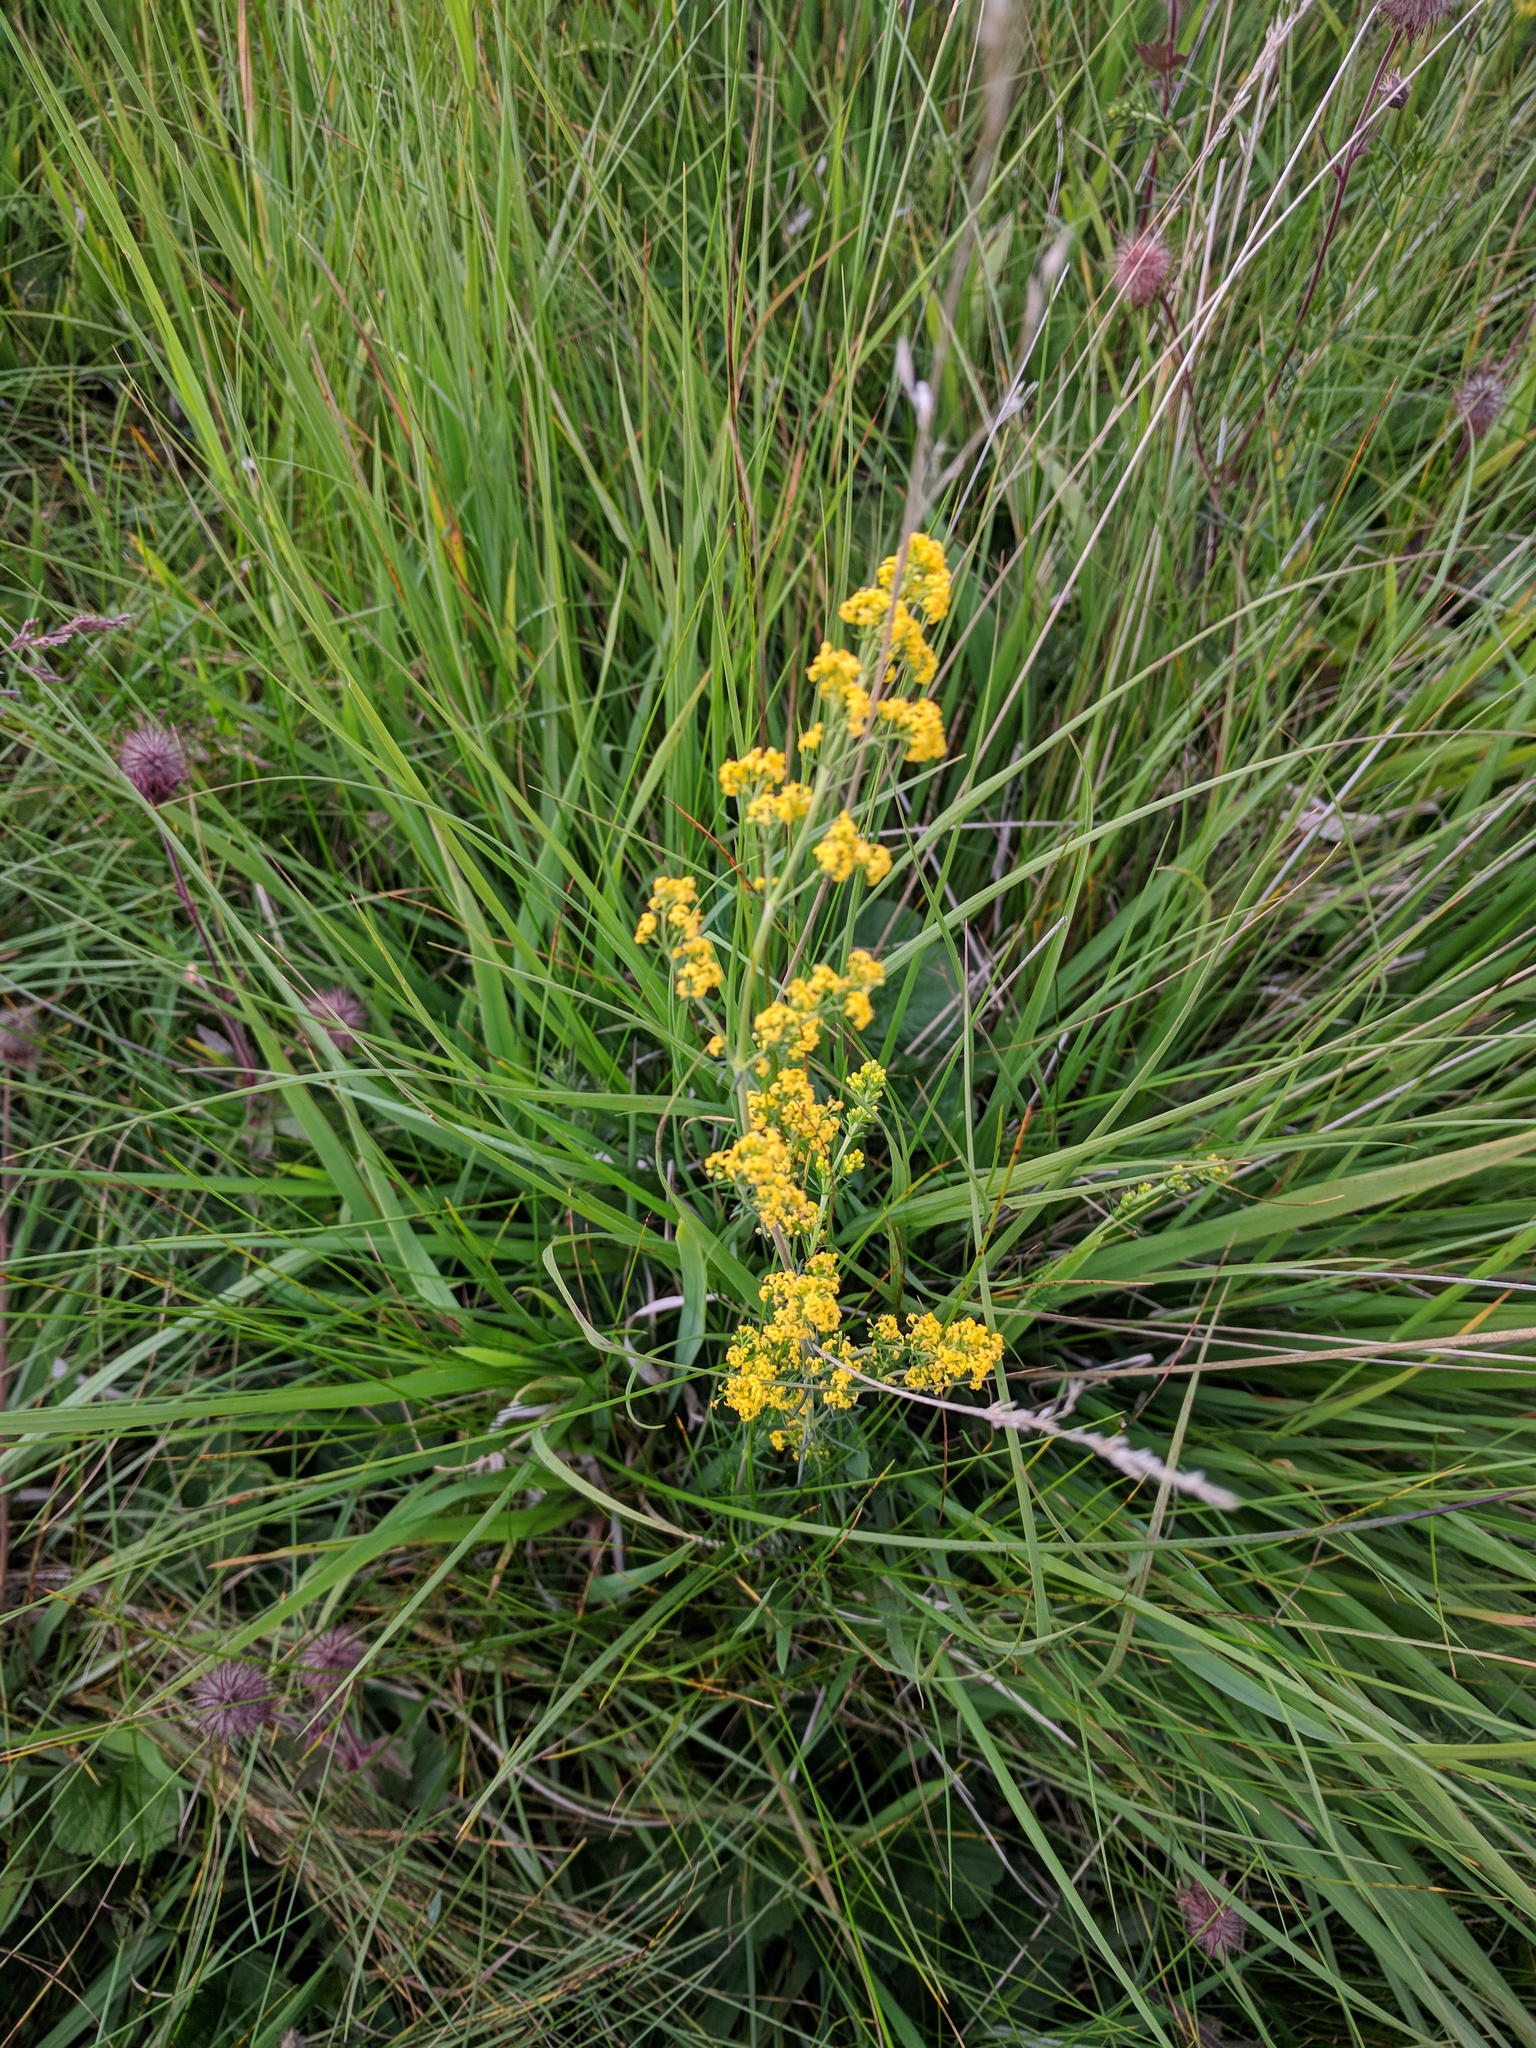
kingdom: Plantae
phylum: Tracheophyta
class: Magnoliopsida
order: Gentianales
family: Rubiaceae
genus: Galium
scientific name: Galium verum
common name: Lady's bedstraw
